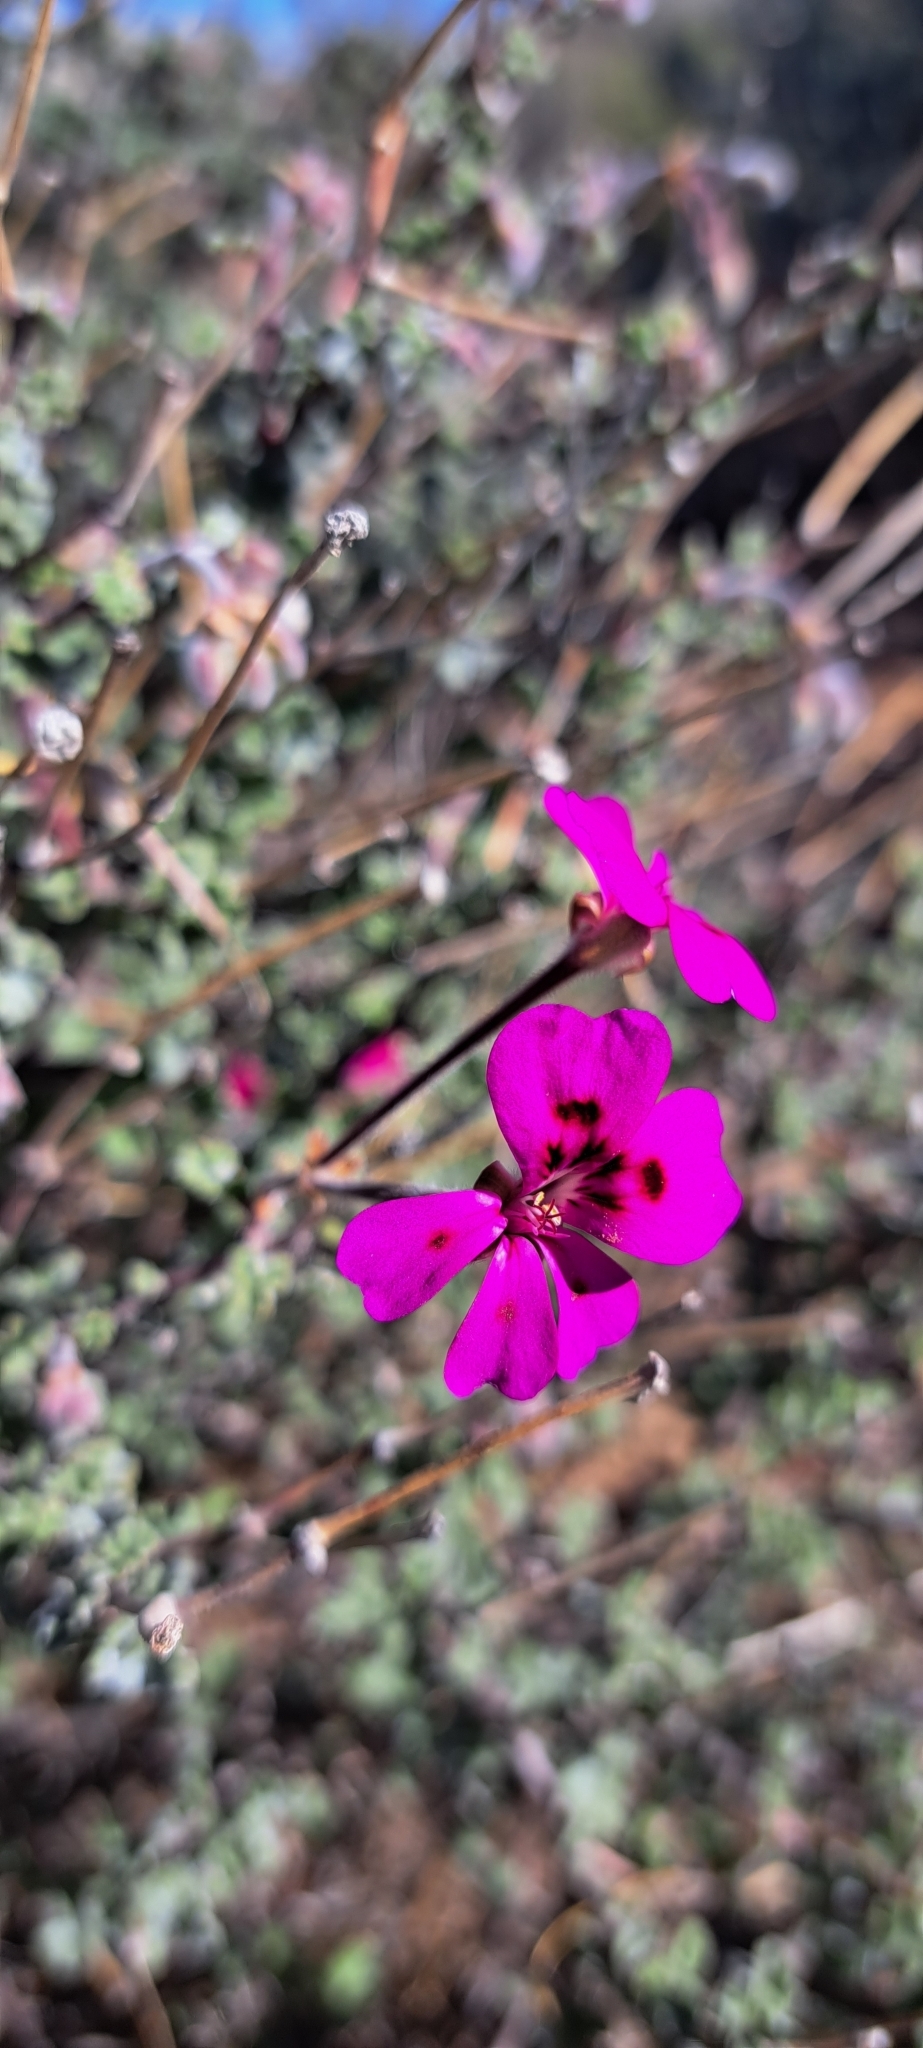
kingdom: Plantae
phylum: Tracheophyta
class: Magnoliopsida
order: Geraniales
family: Geraniaceae
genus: Pelargonium
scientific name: Pelargonium magenteum
